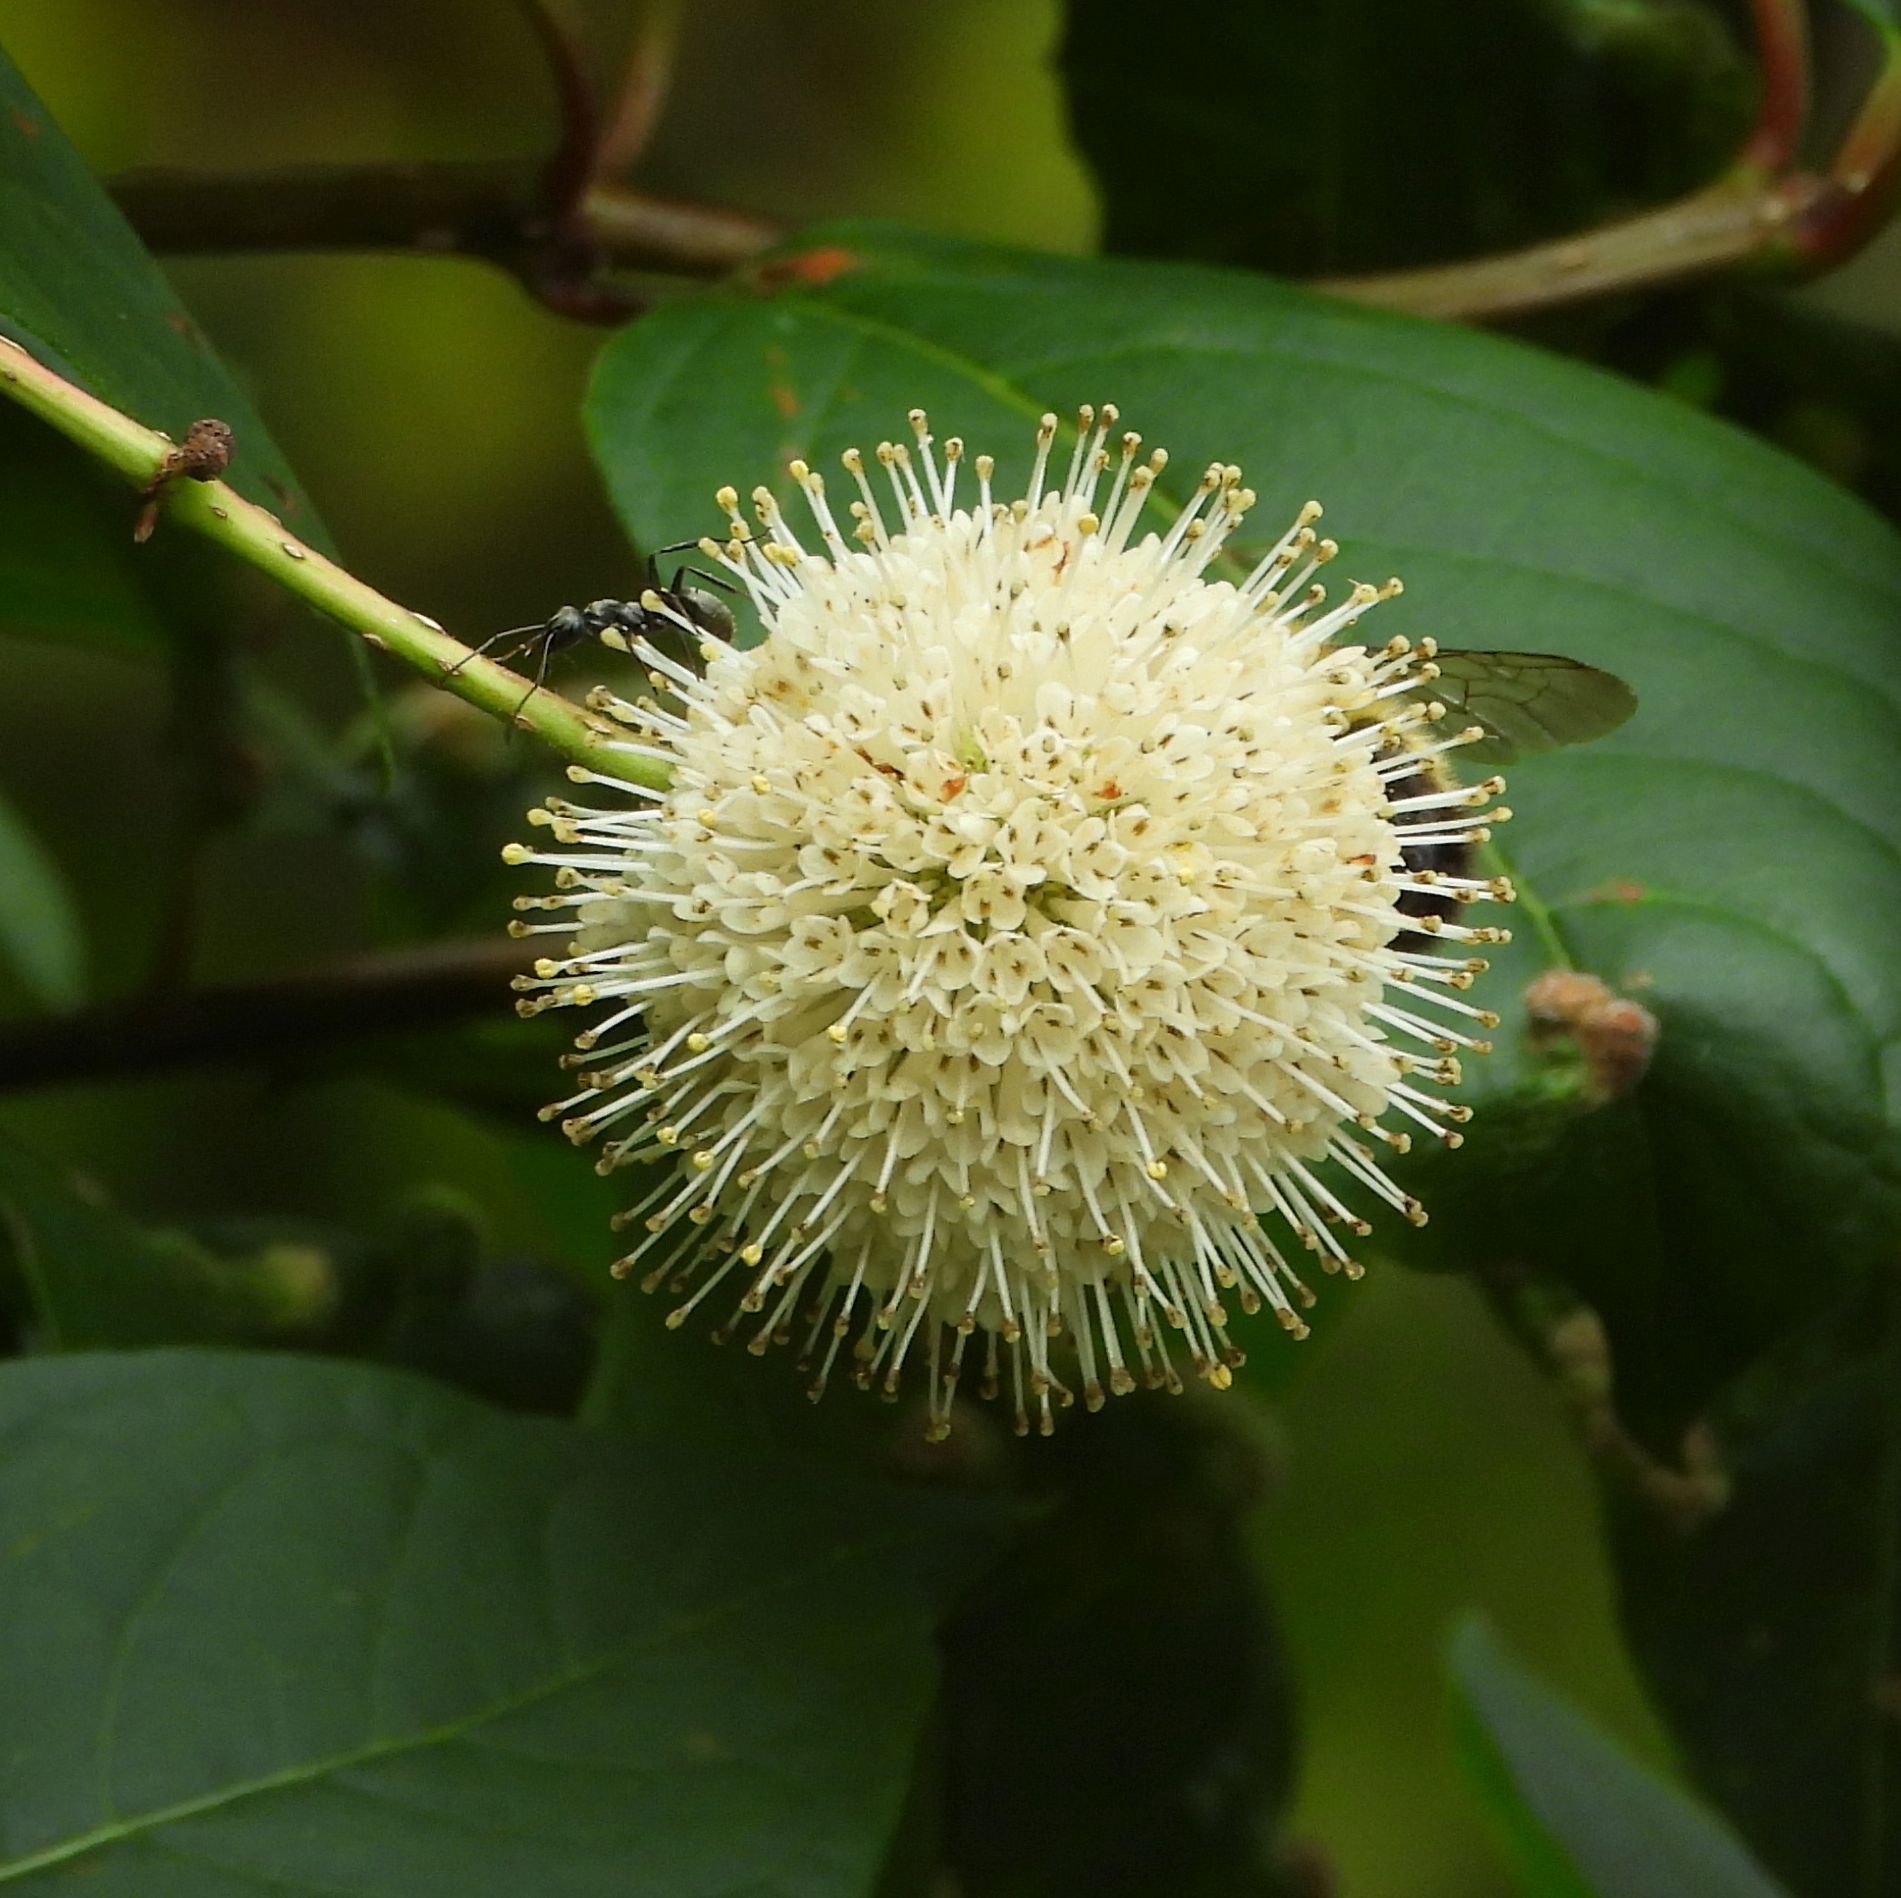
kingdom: Plantae
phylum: Tracheophyta
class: Magnoliopsida
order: Gentianales
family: Rubiaceae
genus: Cephalanthus
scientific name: Cephalanthus occidentalis
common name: Button-willow
